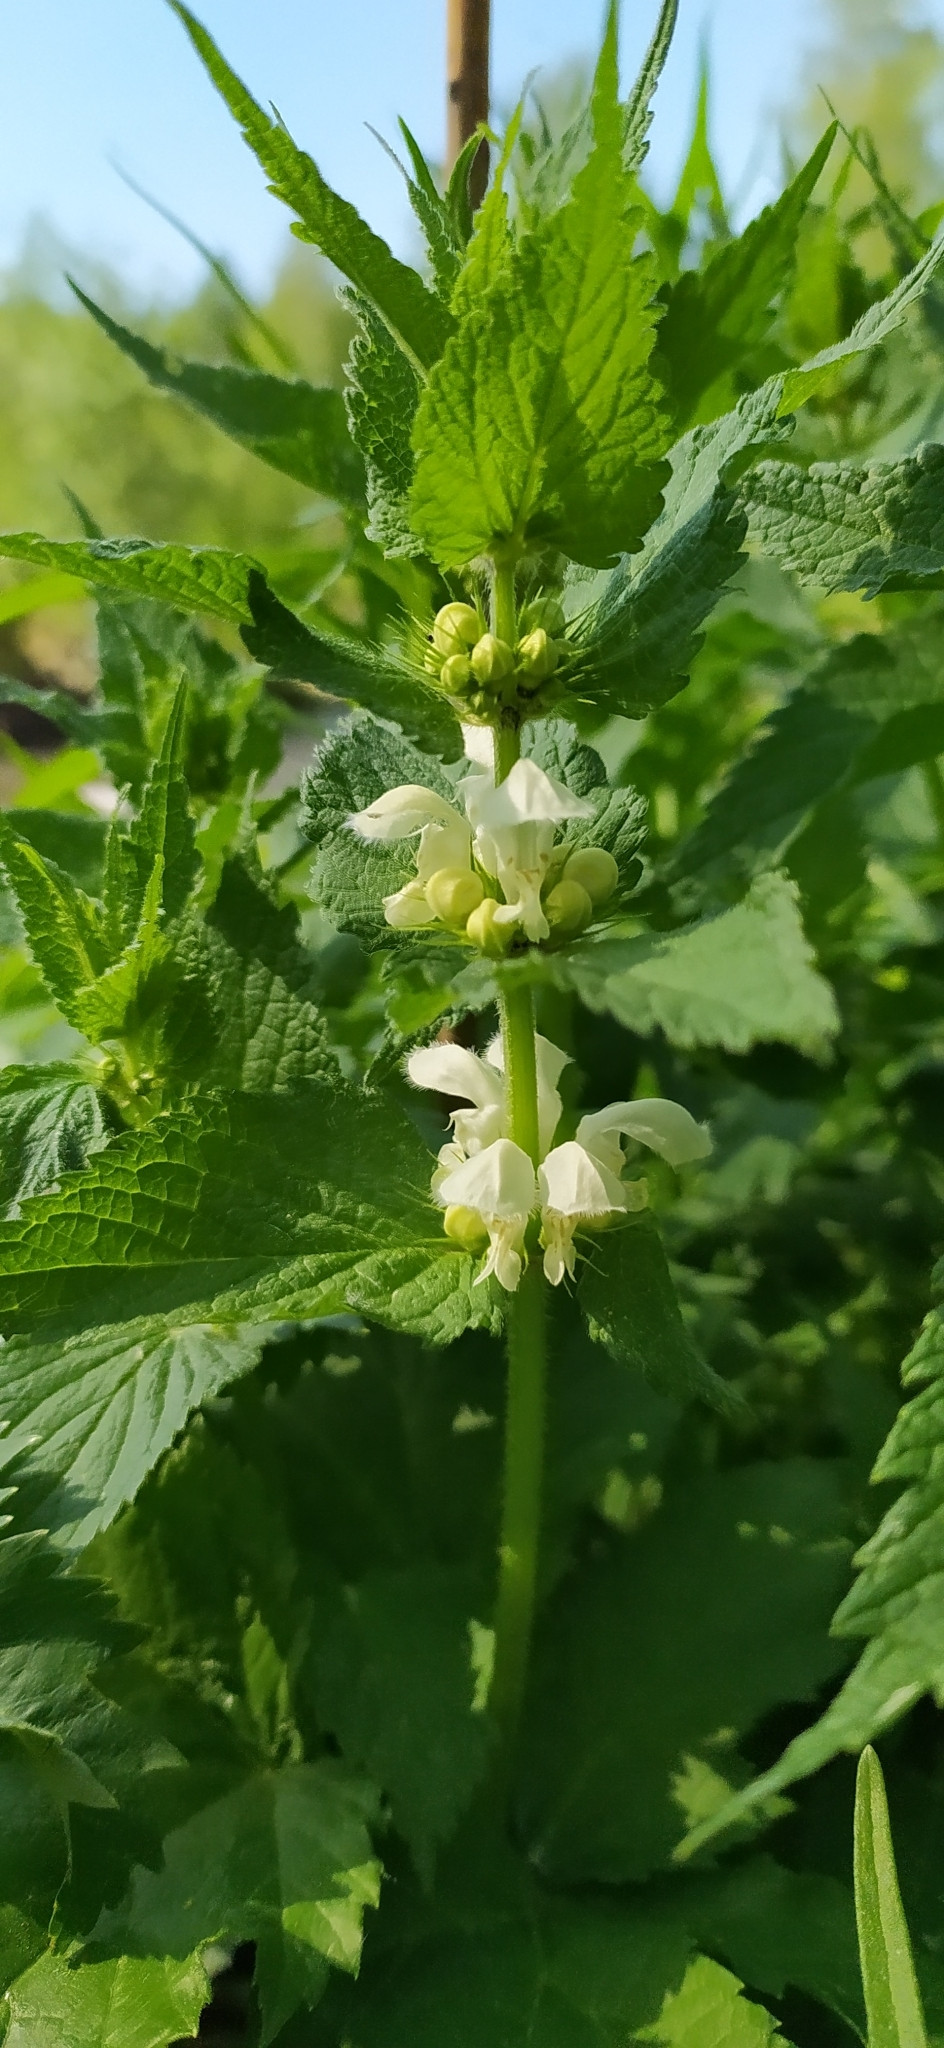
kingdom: Plantae
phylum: Tracheophyta
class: Magnoliopsida
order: Lamiales
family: Lamiaceae
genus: Lamium
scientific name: Lamium album
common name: White dead-nettle
